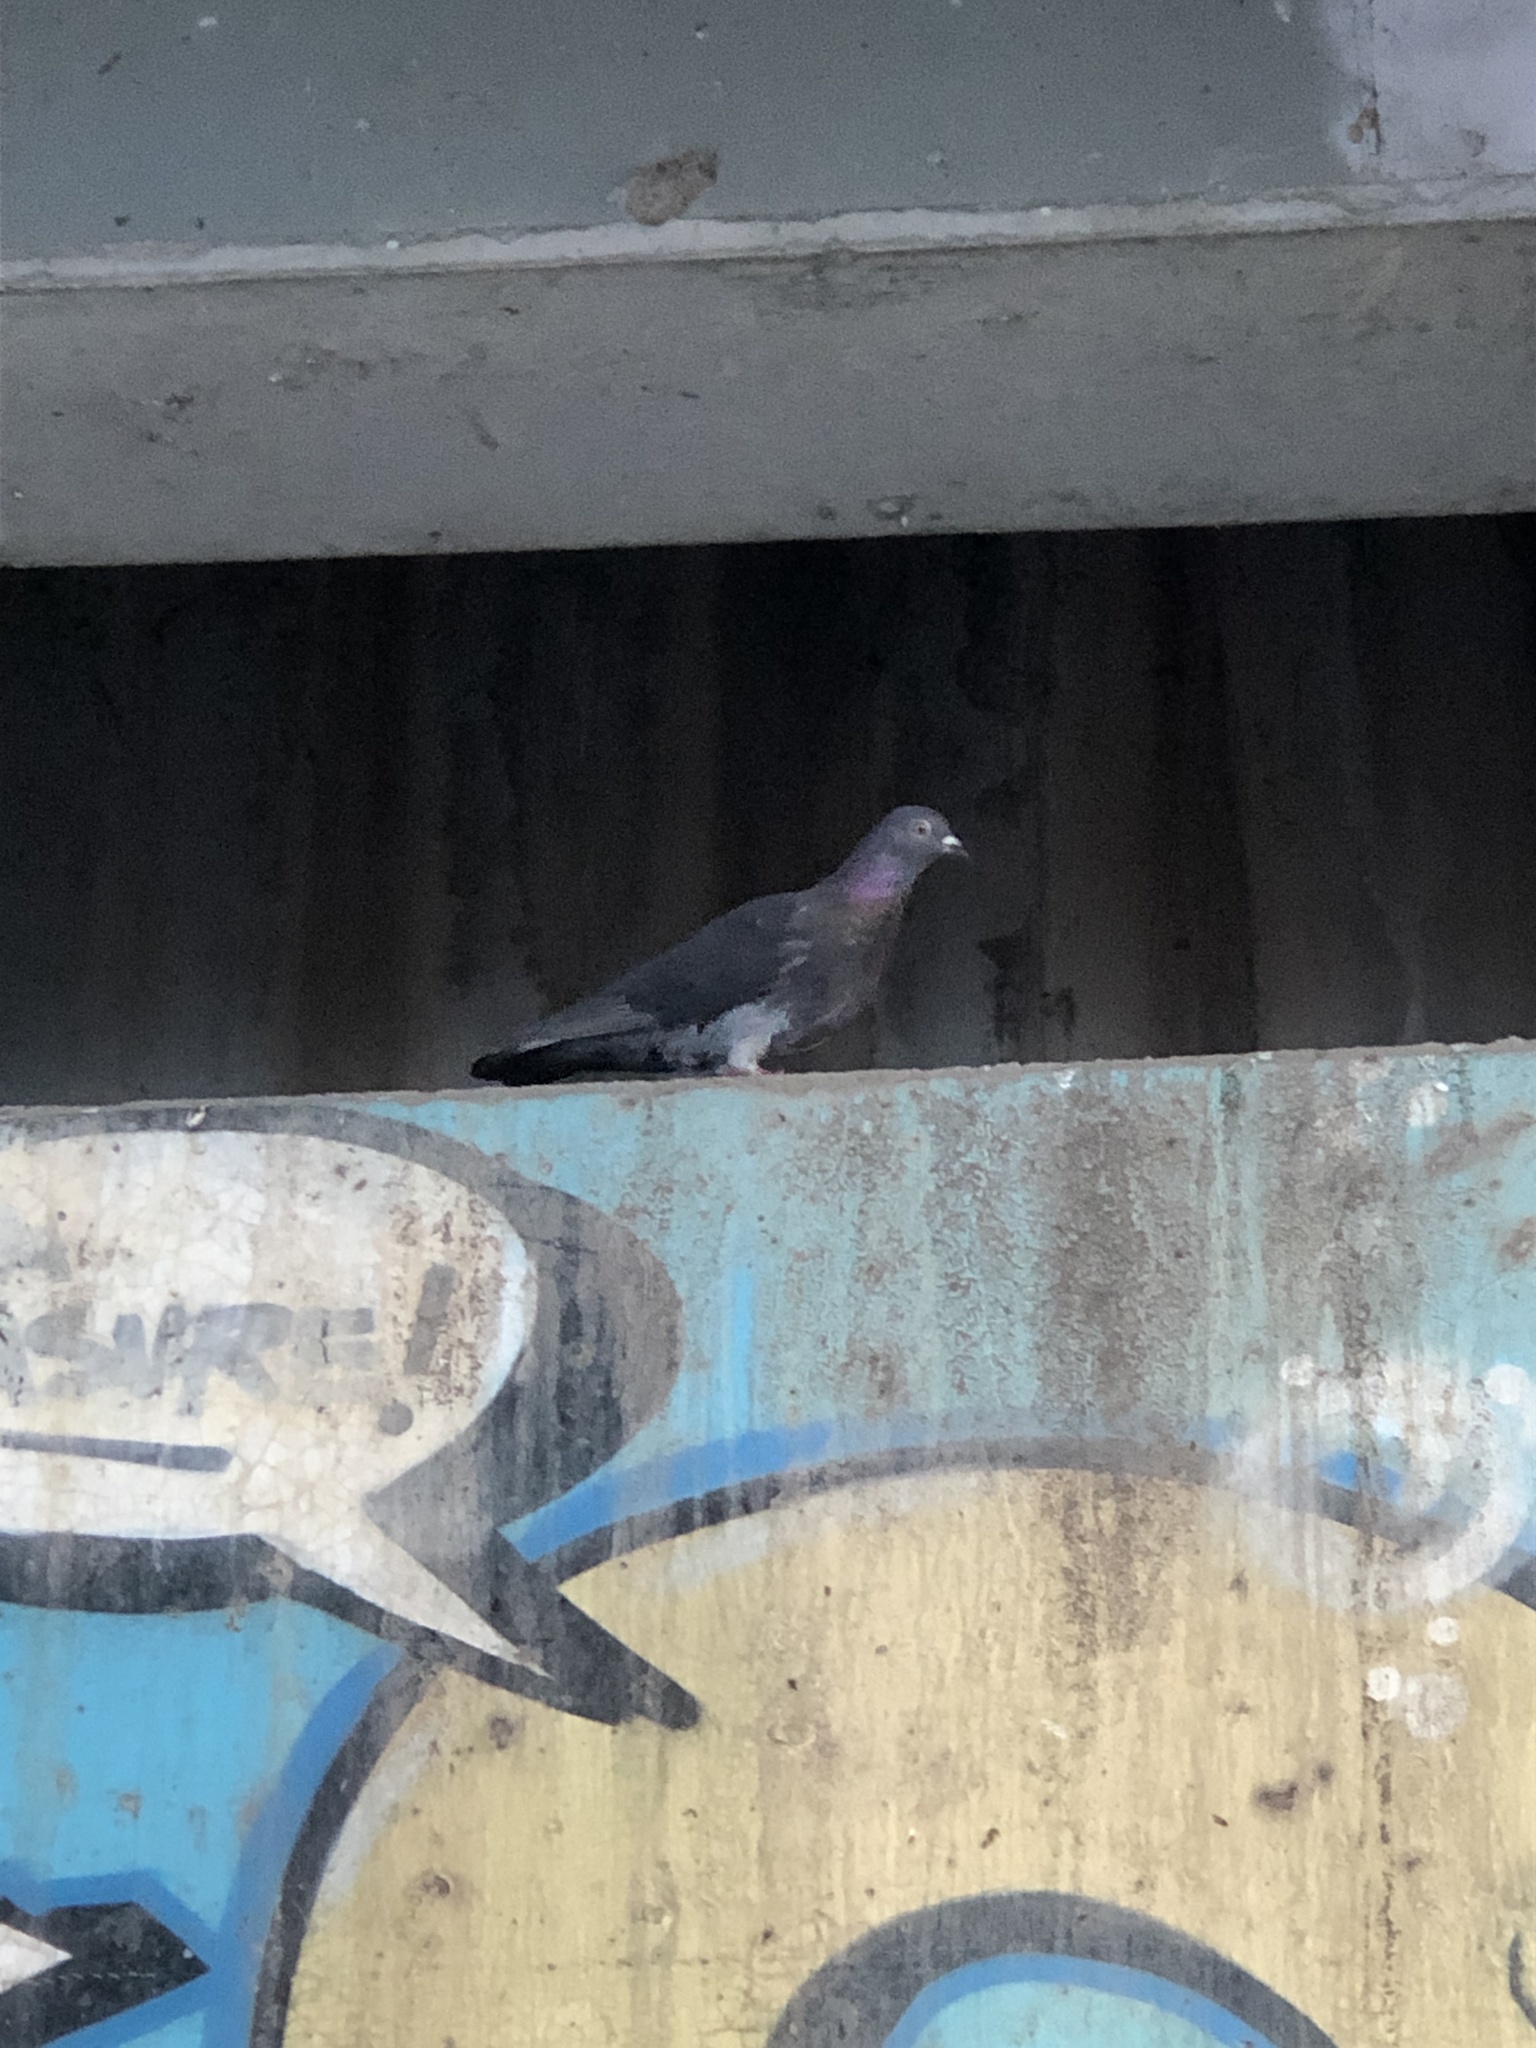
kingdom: Animalia
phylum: Chordata
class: Aves
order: Columbiformes
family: Columbidae
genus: Columba
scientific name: Columba livia
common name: Rock pigeon
